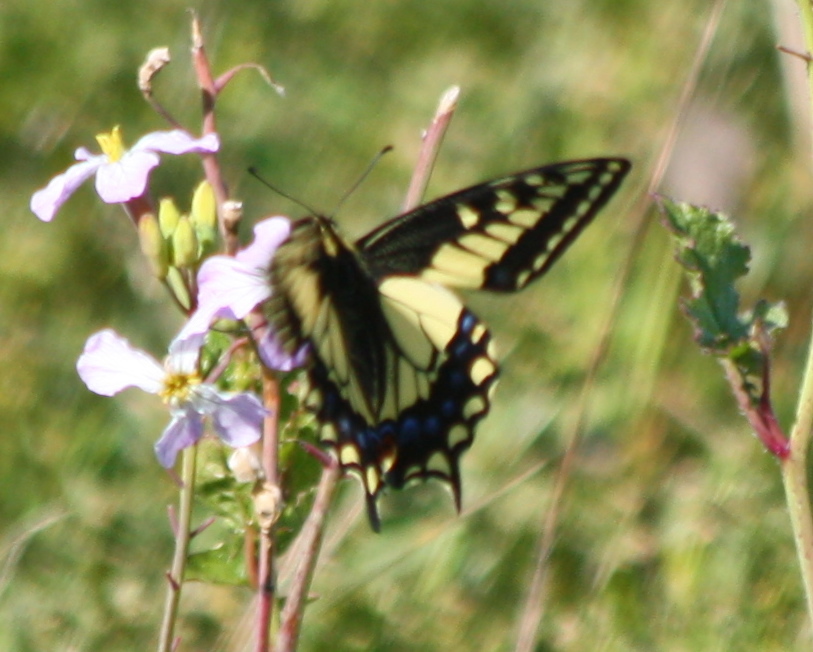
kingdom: Animalia
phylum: Arthropoda
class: Insecta
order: Lepidoptera
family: Papilionidae
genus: Papilio
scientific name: Papilio zelicaon
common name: Anise swallowtail
